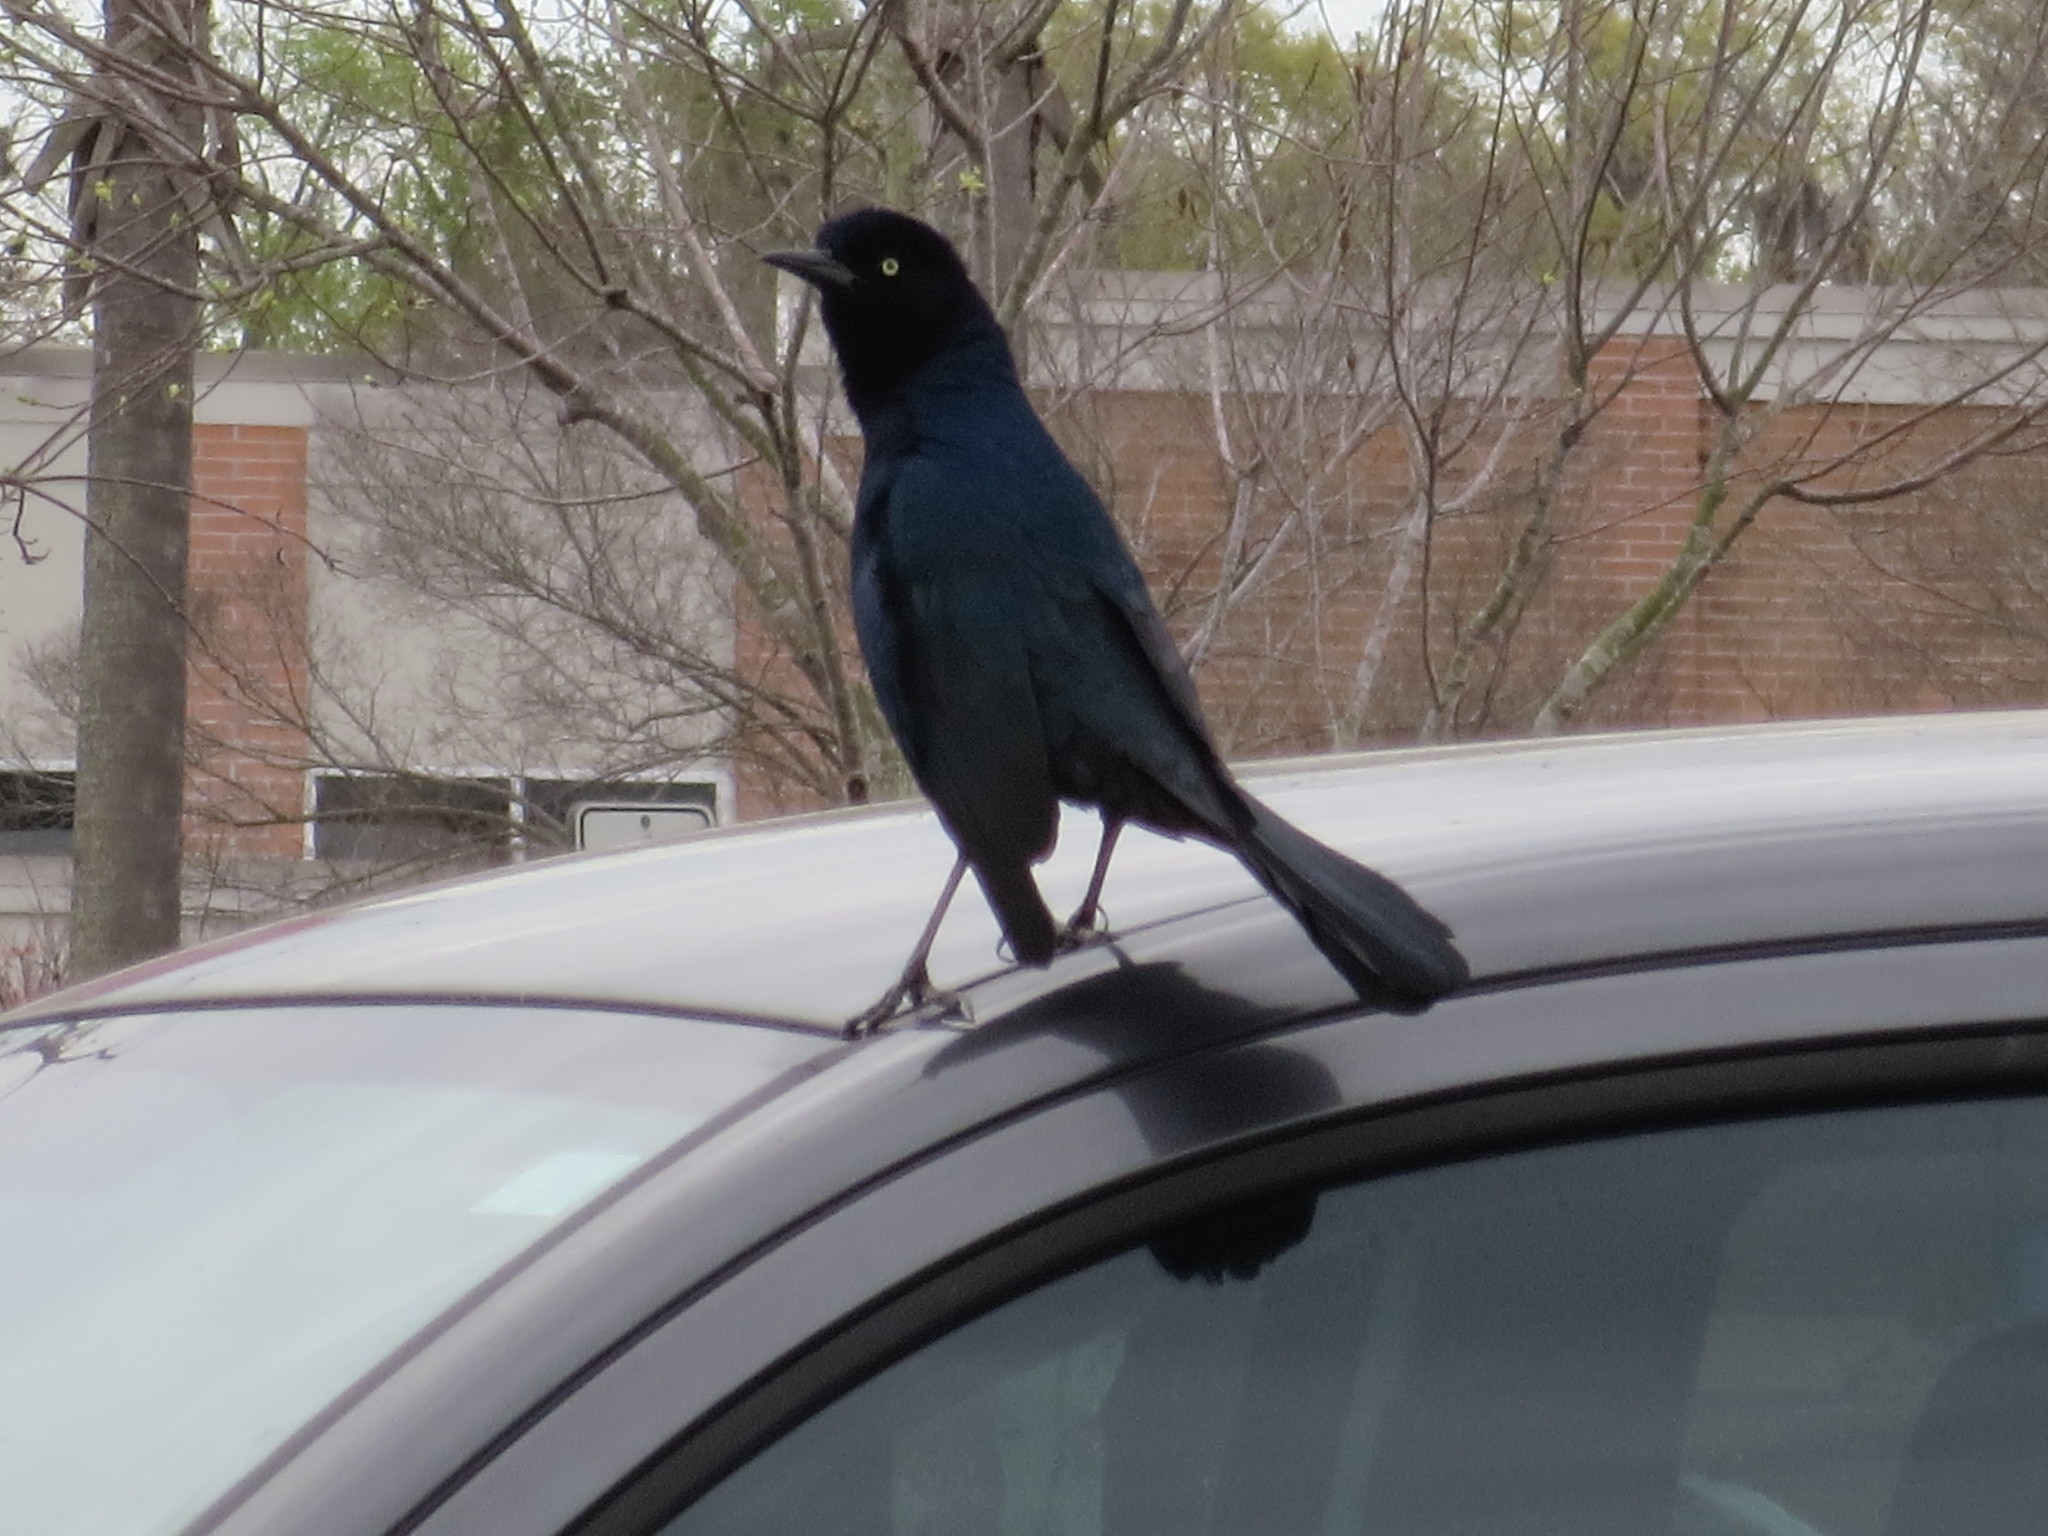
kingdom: Animalia
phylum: Chordata
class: Aves
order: Passeriformes
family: Icteridae
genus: Quiscalus
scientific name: Quiscalus major
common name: Boat-tailed grackle
